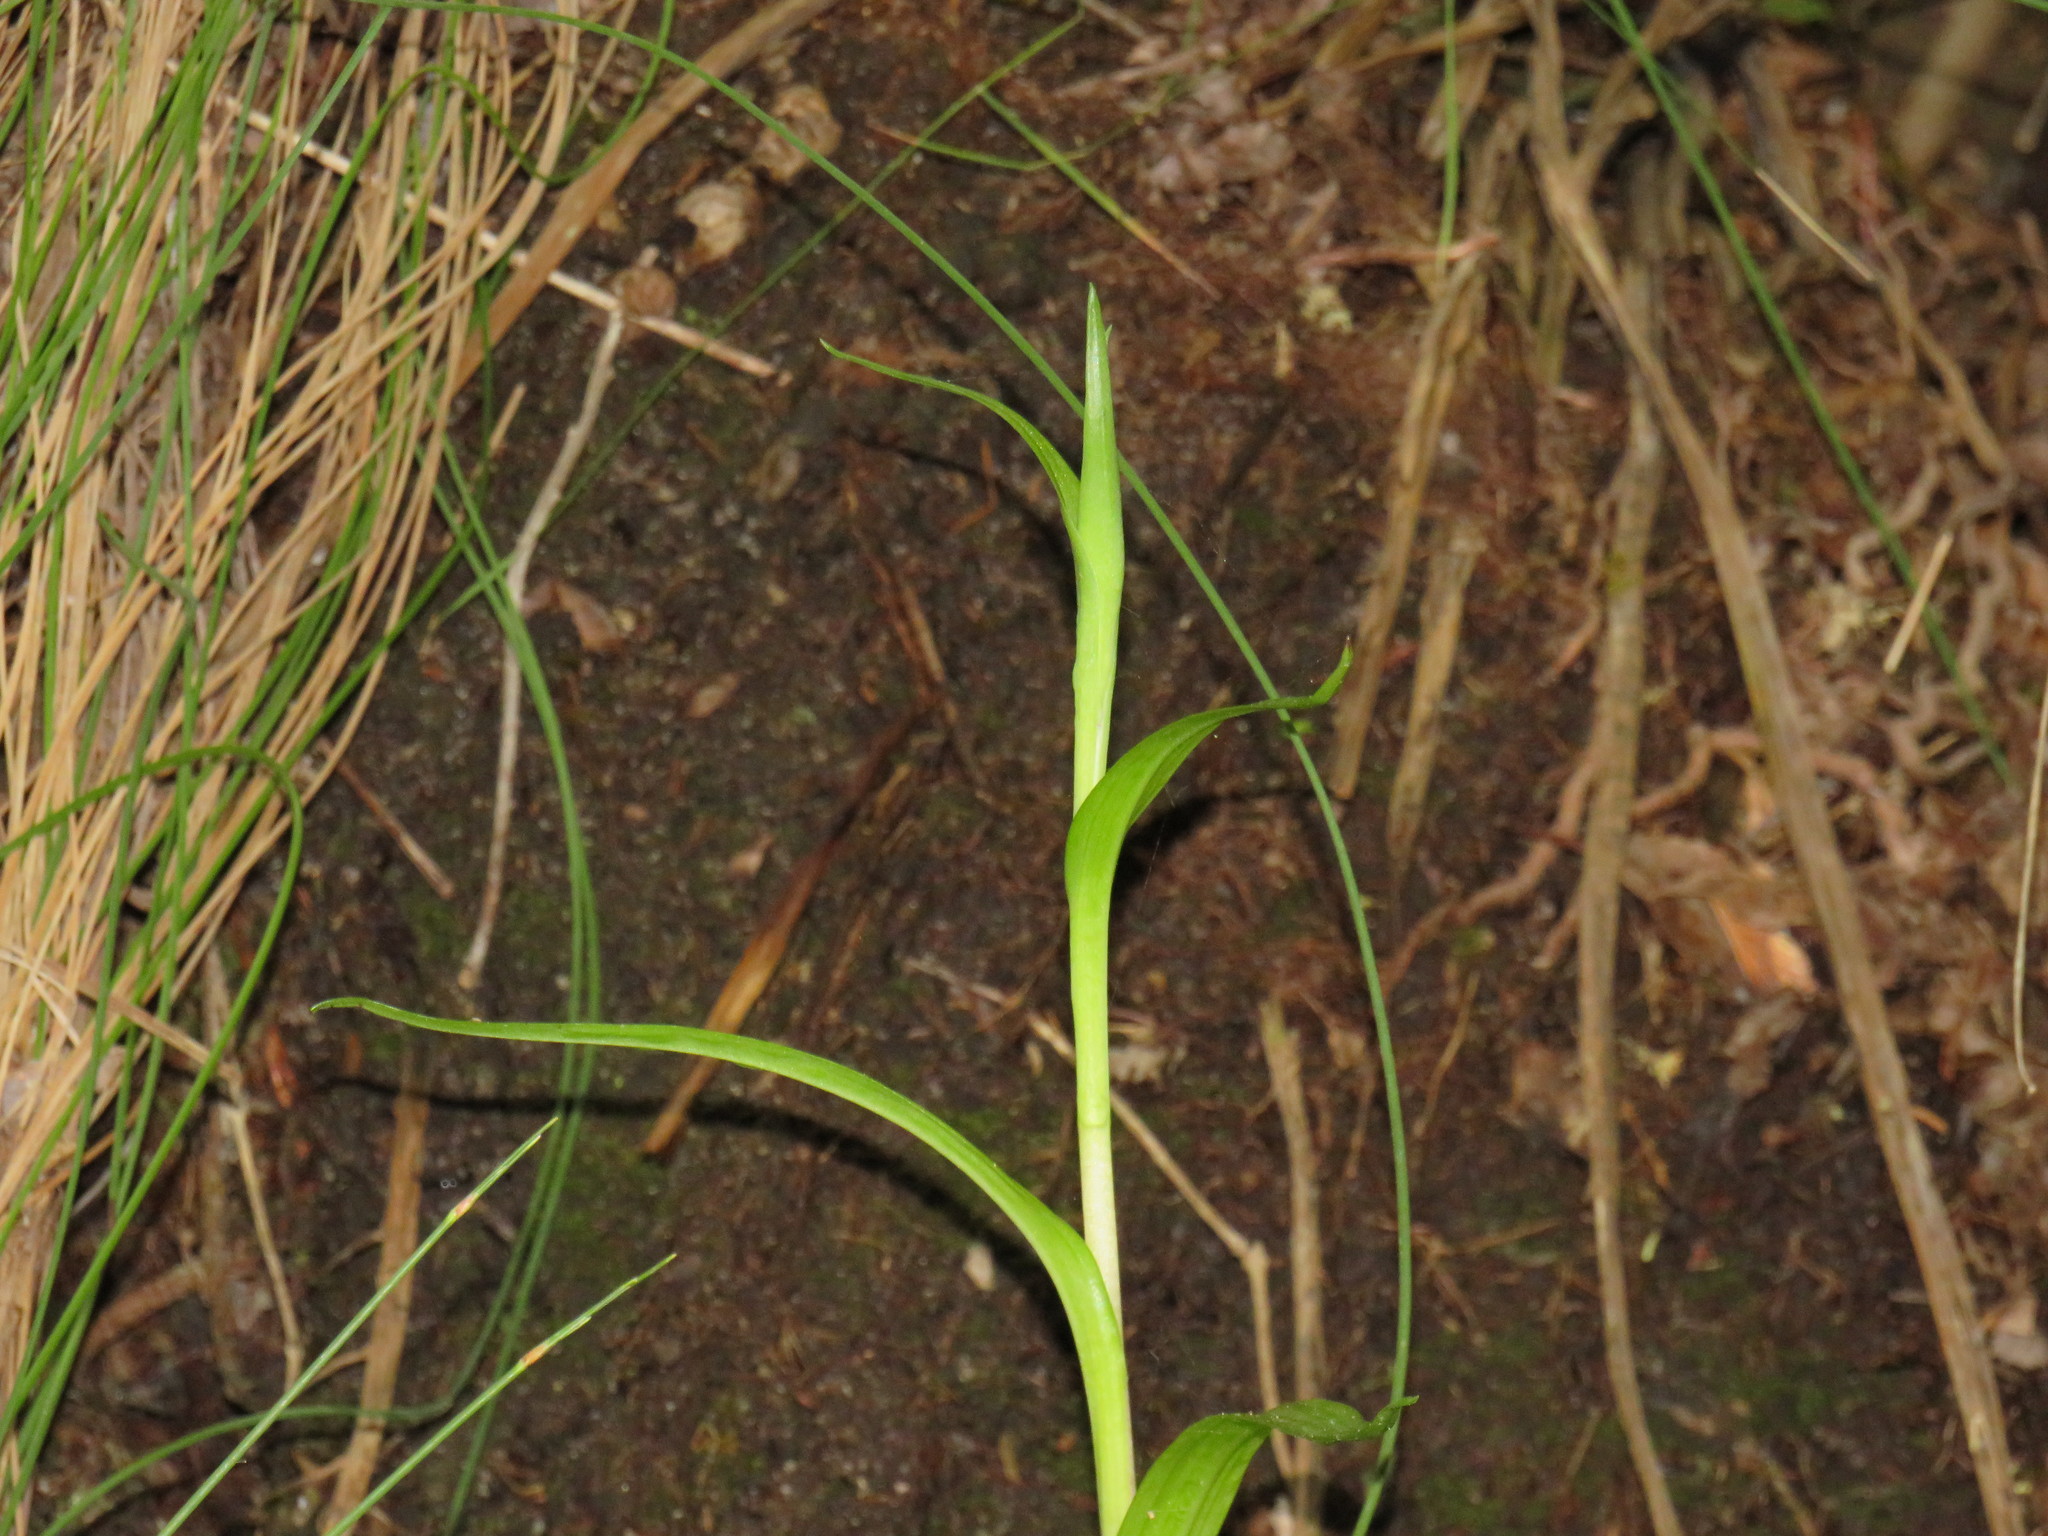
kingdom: Plantae
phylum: Tracheophyta
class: Liliopsida
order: Asparagales
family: Orchidaceae
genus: Disa
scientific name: Disa uniflora
